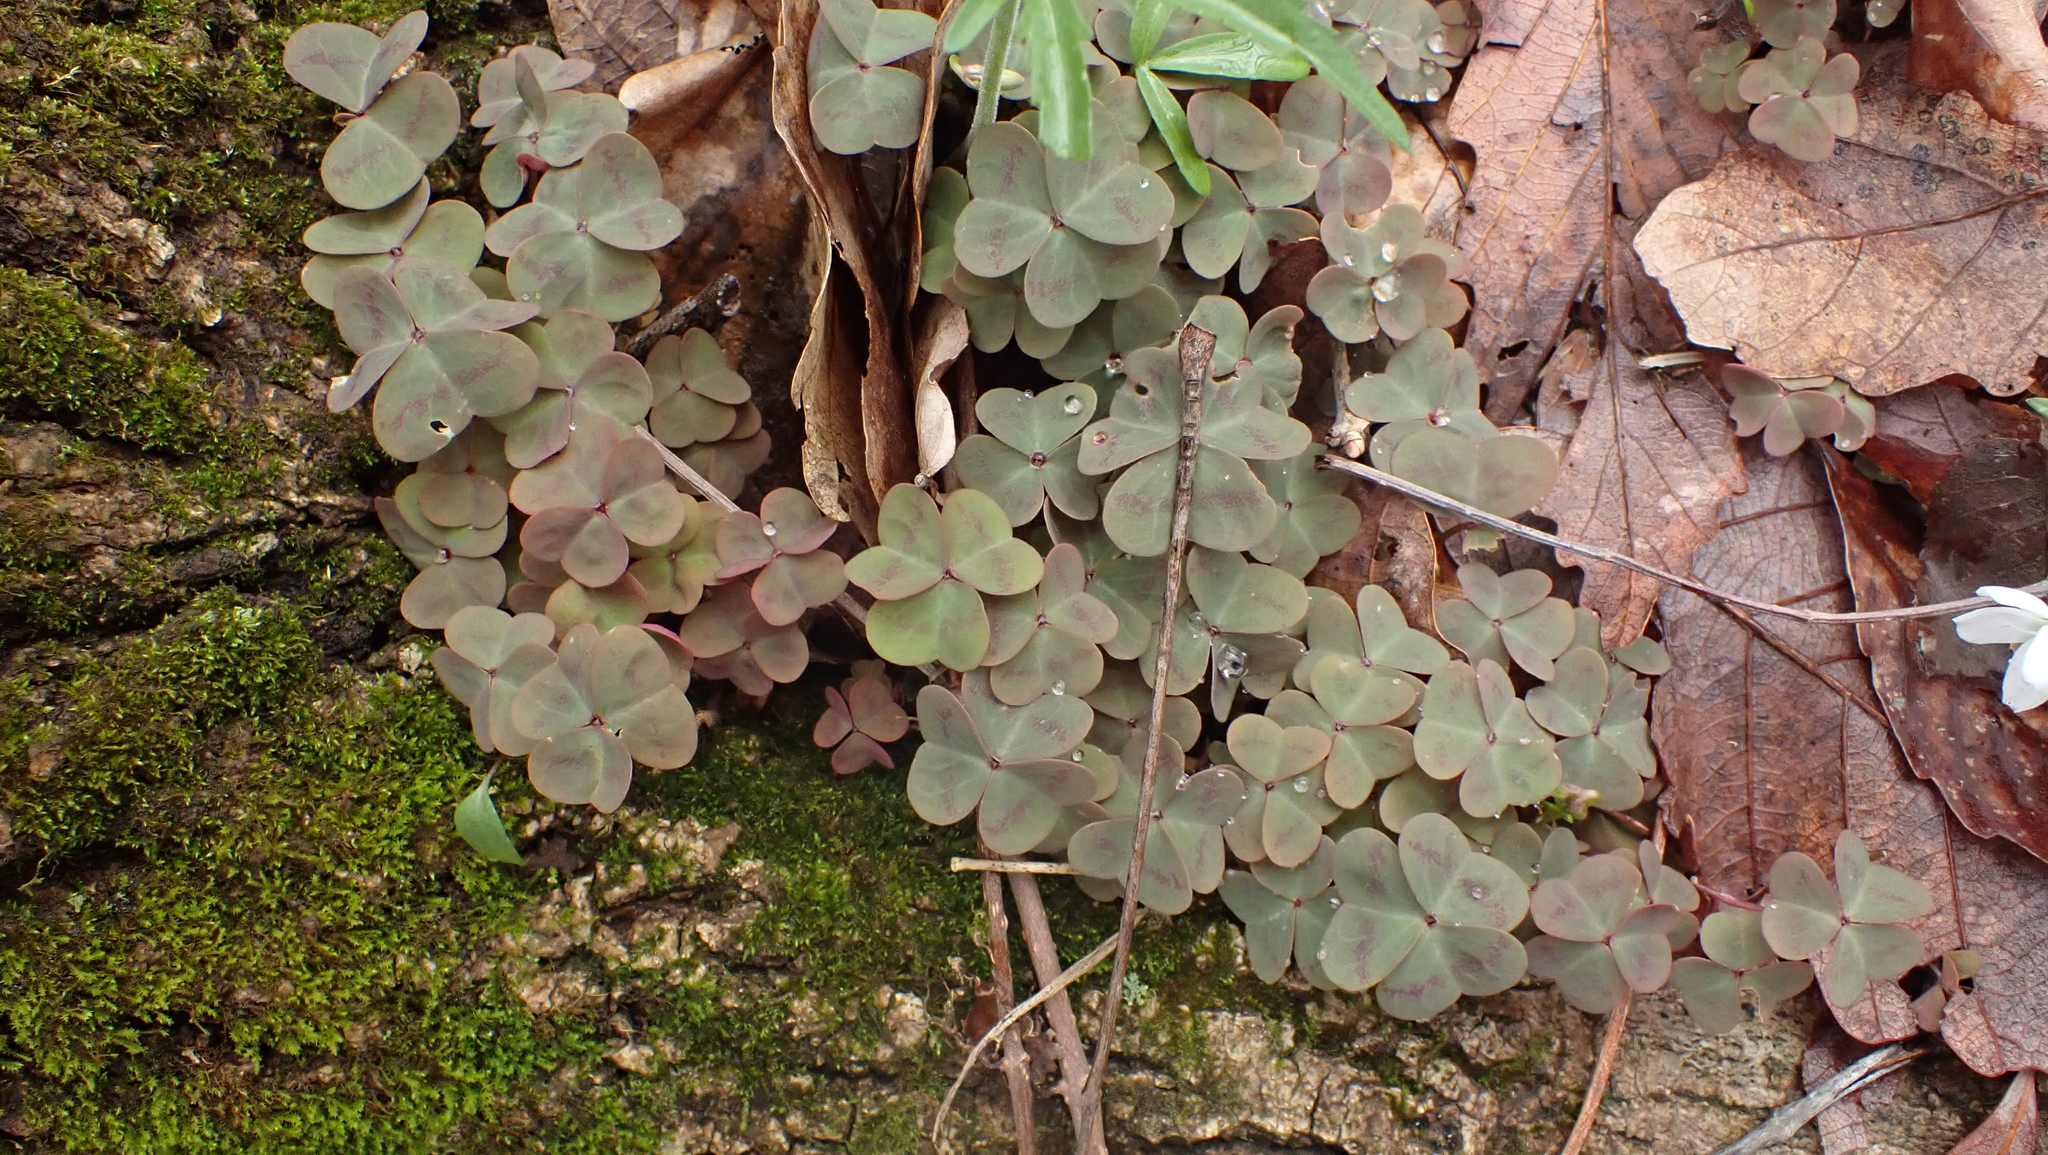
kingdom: Plantae
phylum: Tracheophyta
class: Magnoliopsida
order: Oxalidales
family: Oxalidaceae
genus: Oxalis
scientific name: Oxalis violacea
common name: Violet wood-sorrel
